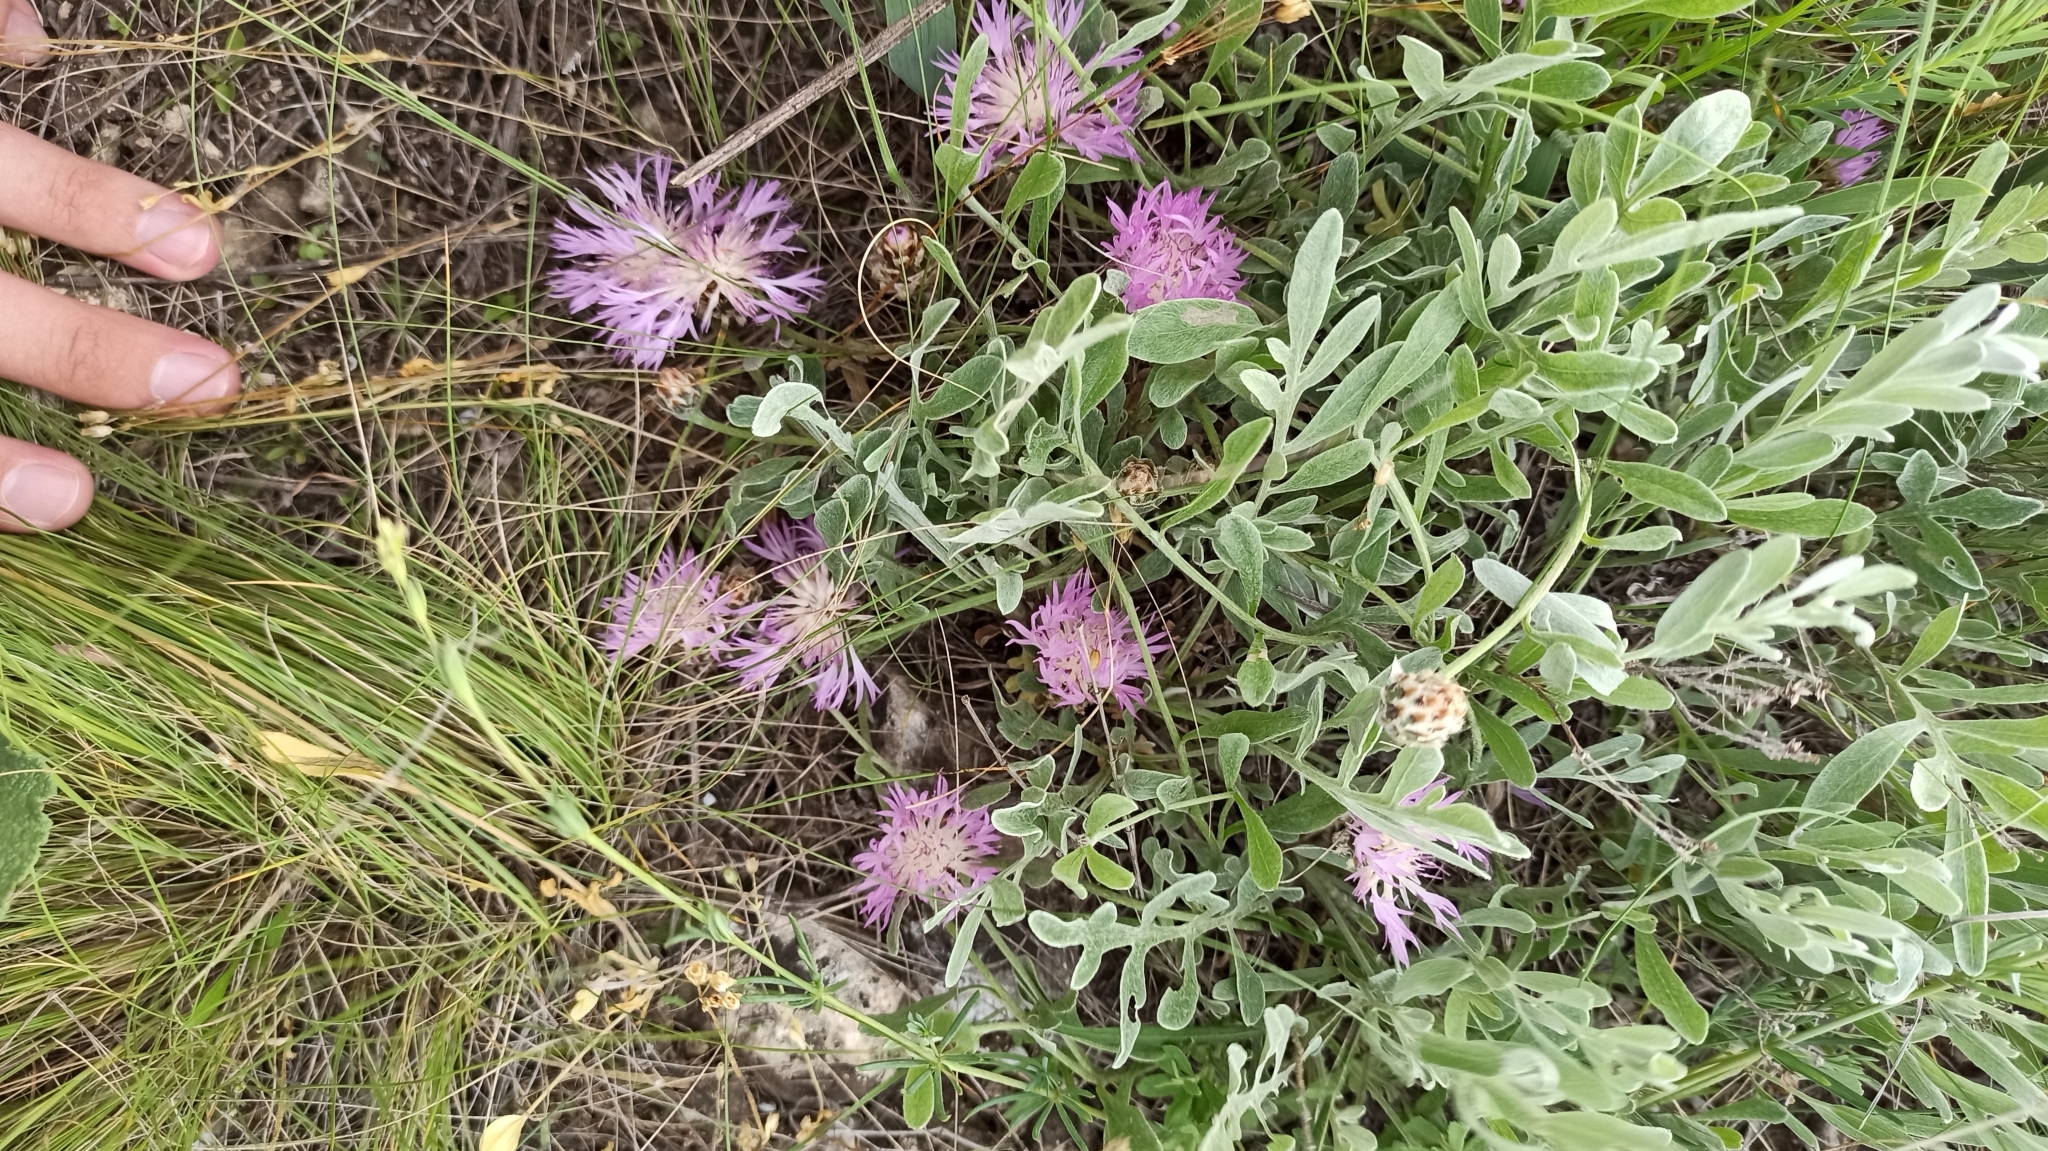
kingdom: Plantae
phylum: Tracheophyta
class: Magnoliopsida
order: Asterales
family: Asteraceae
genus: Psephellus
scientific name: Psephellus carbonatus
